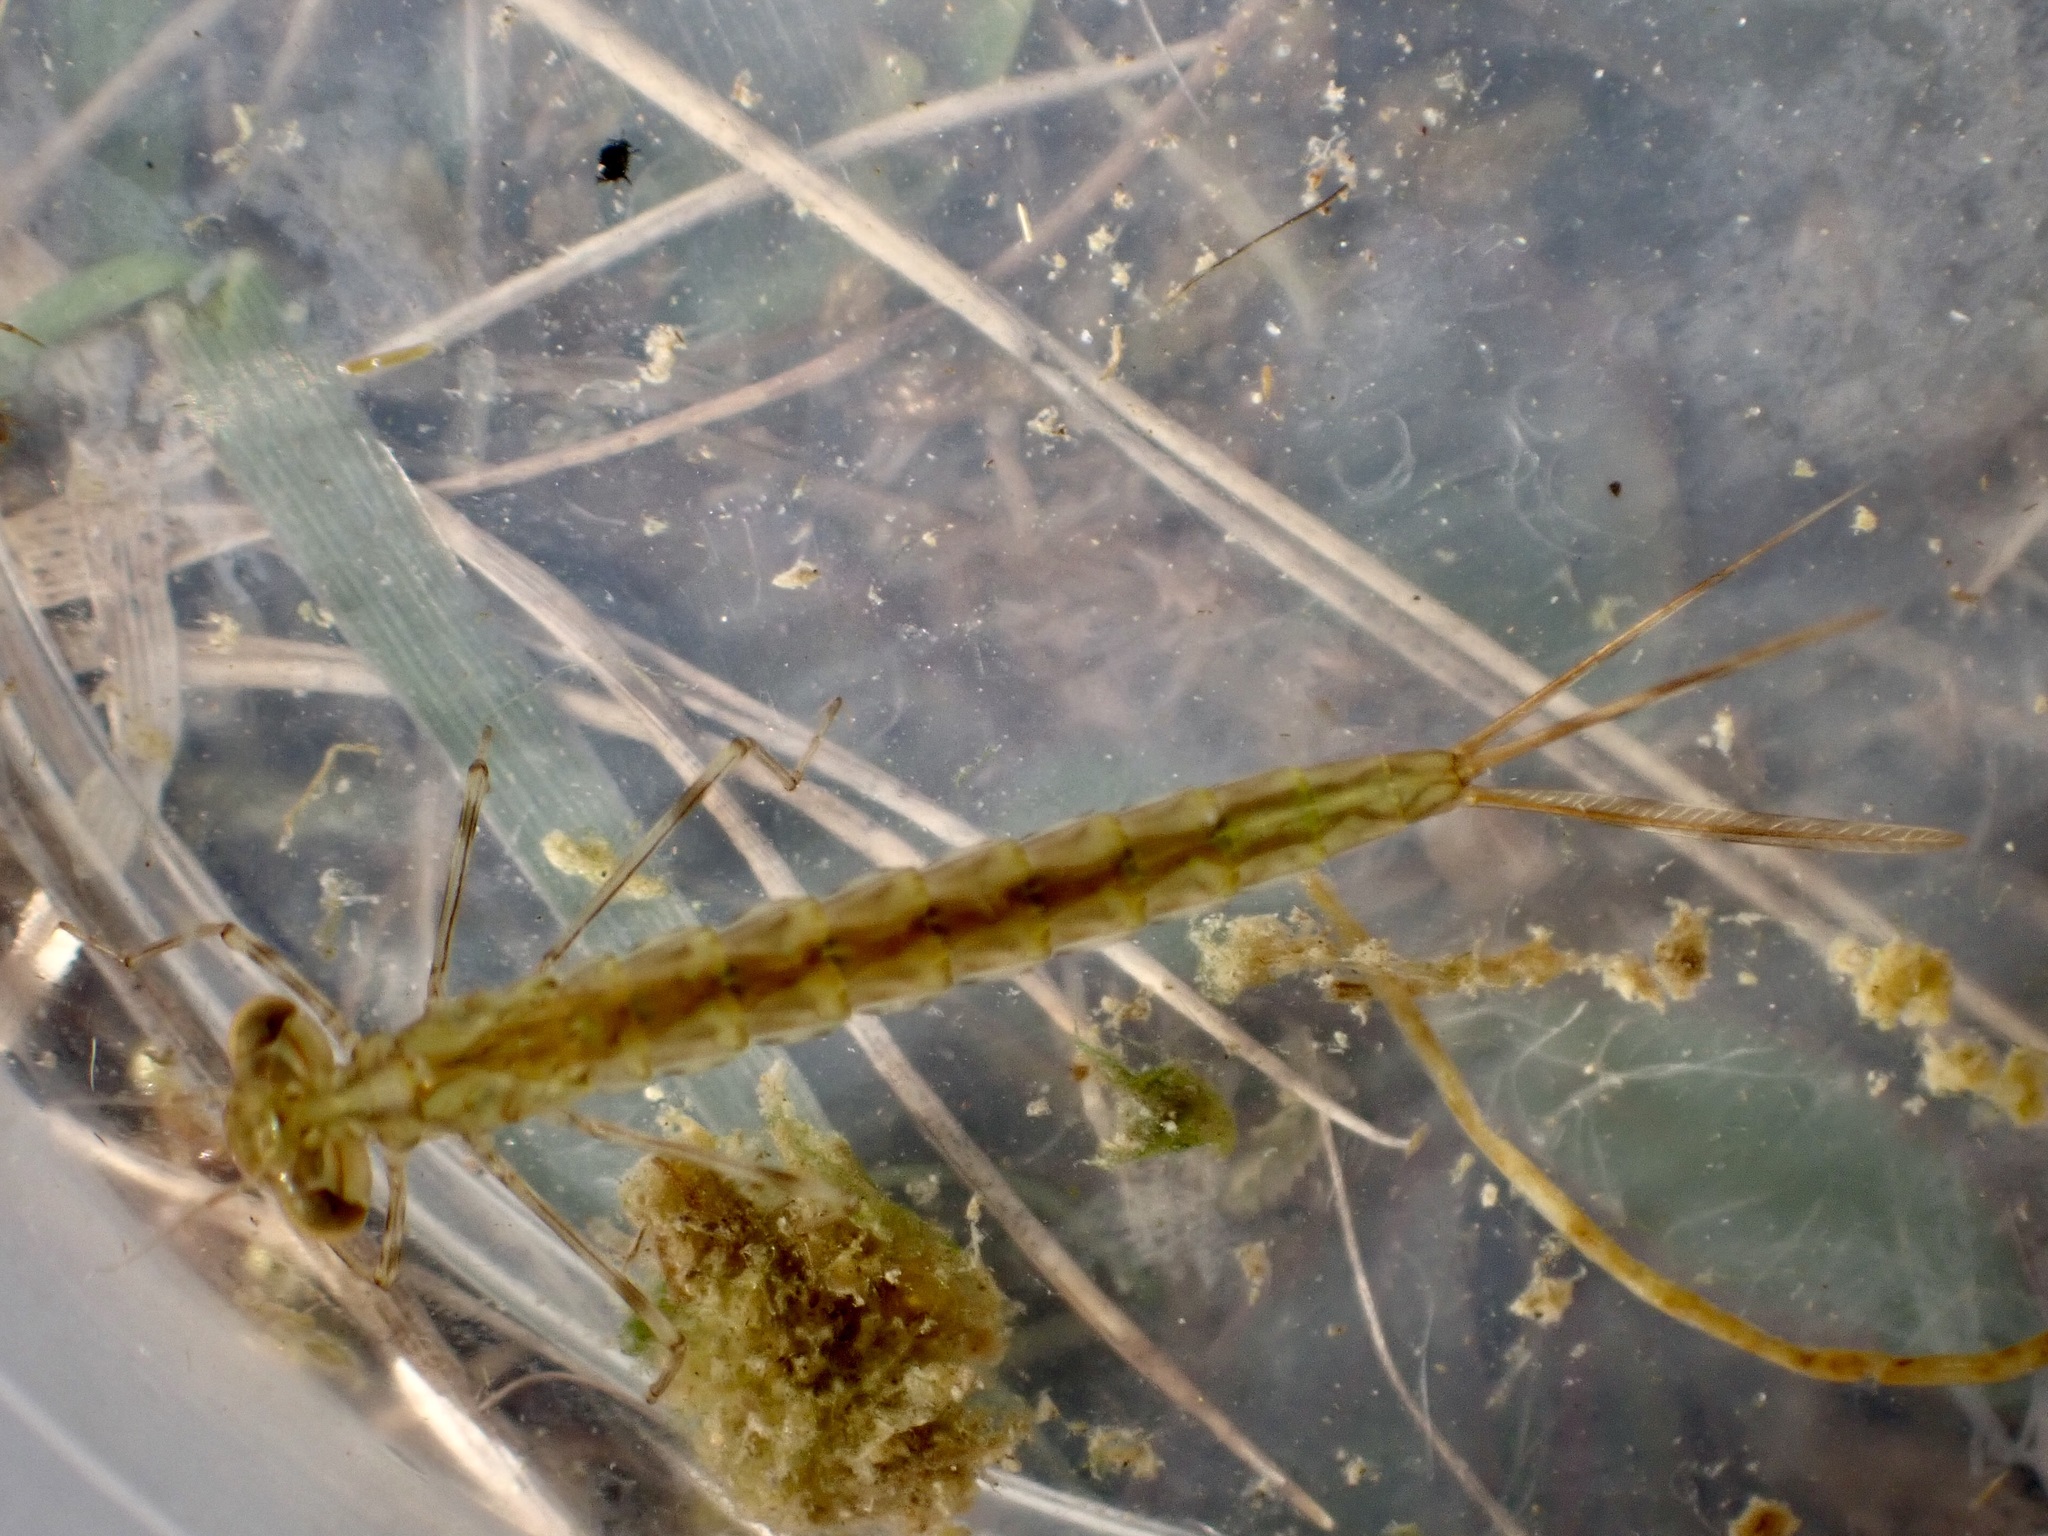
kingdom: Animalia
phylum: Arthropoda
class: Insecta
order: Odonata
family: Lestidae
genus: Austrolestes
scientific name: Austrolestes colensonis
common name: Blue damselfly
